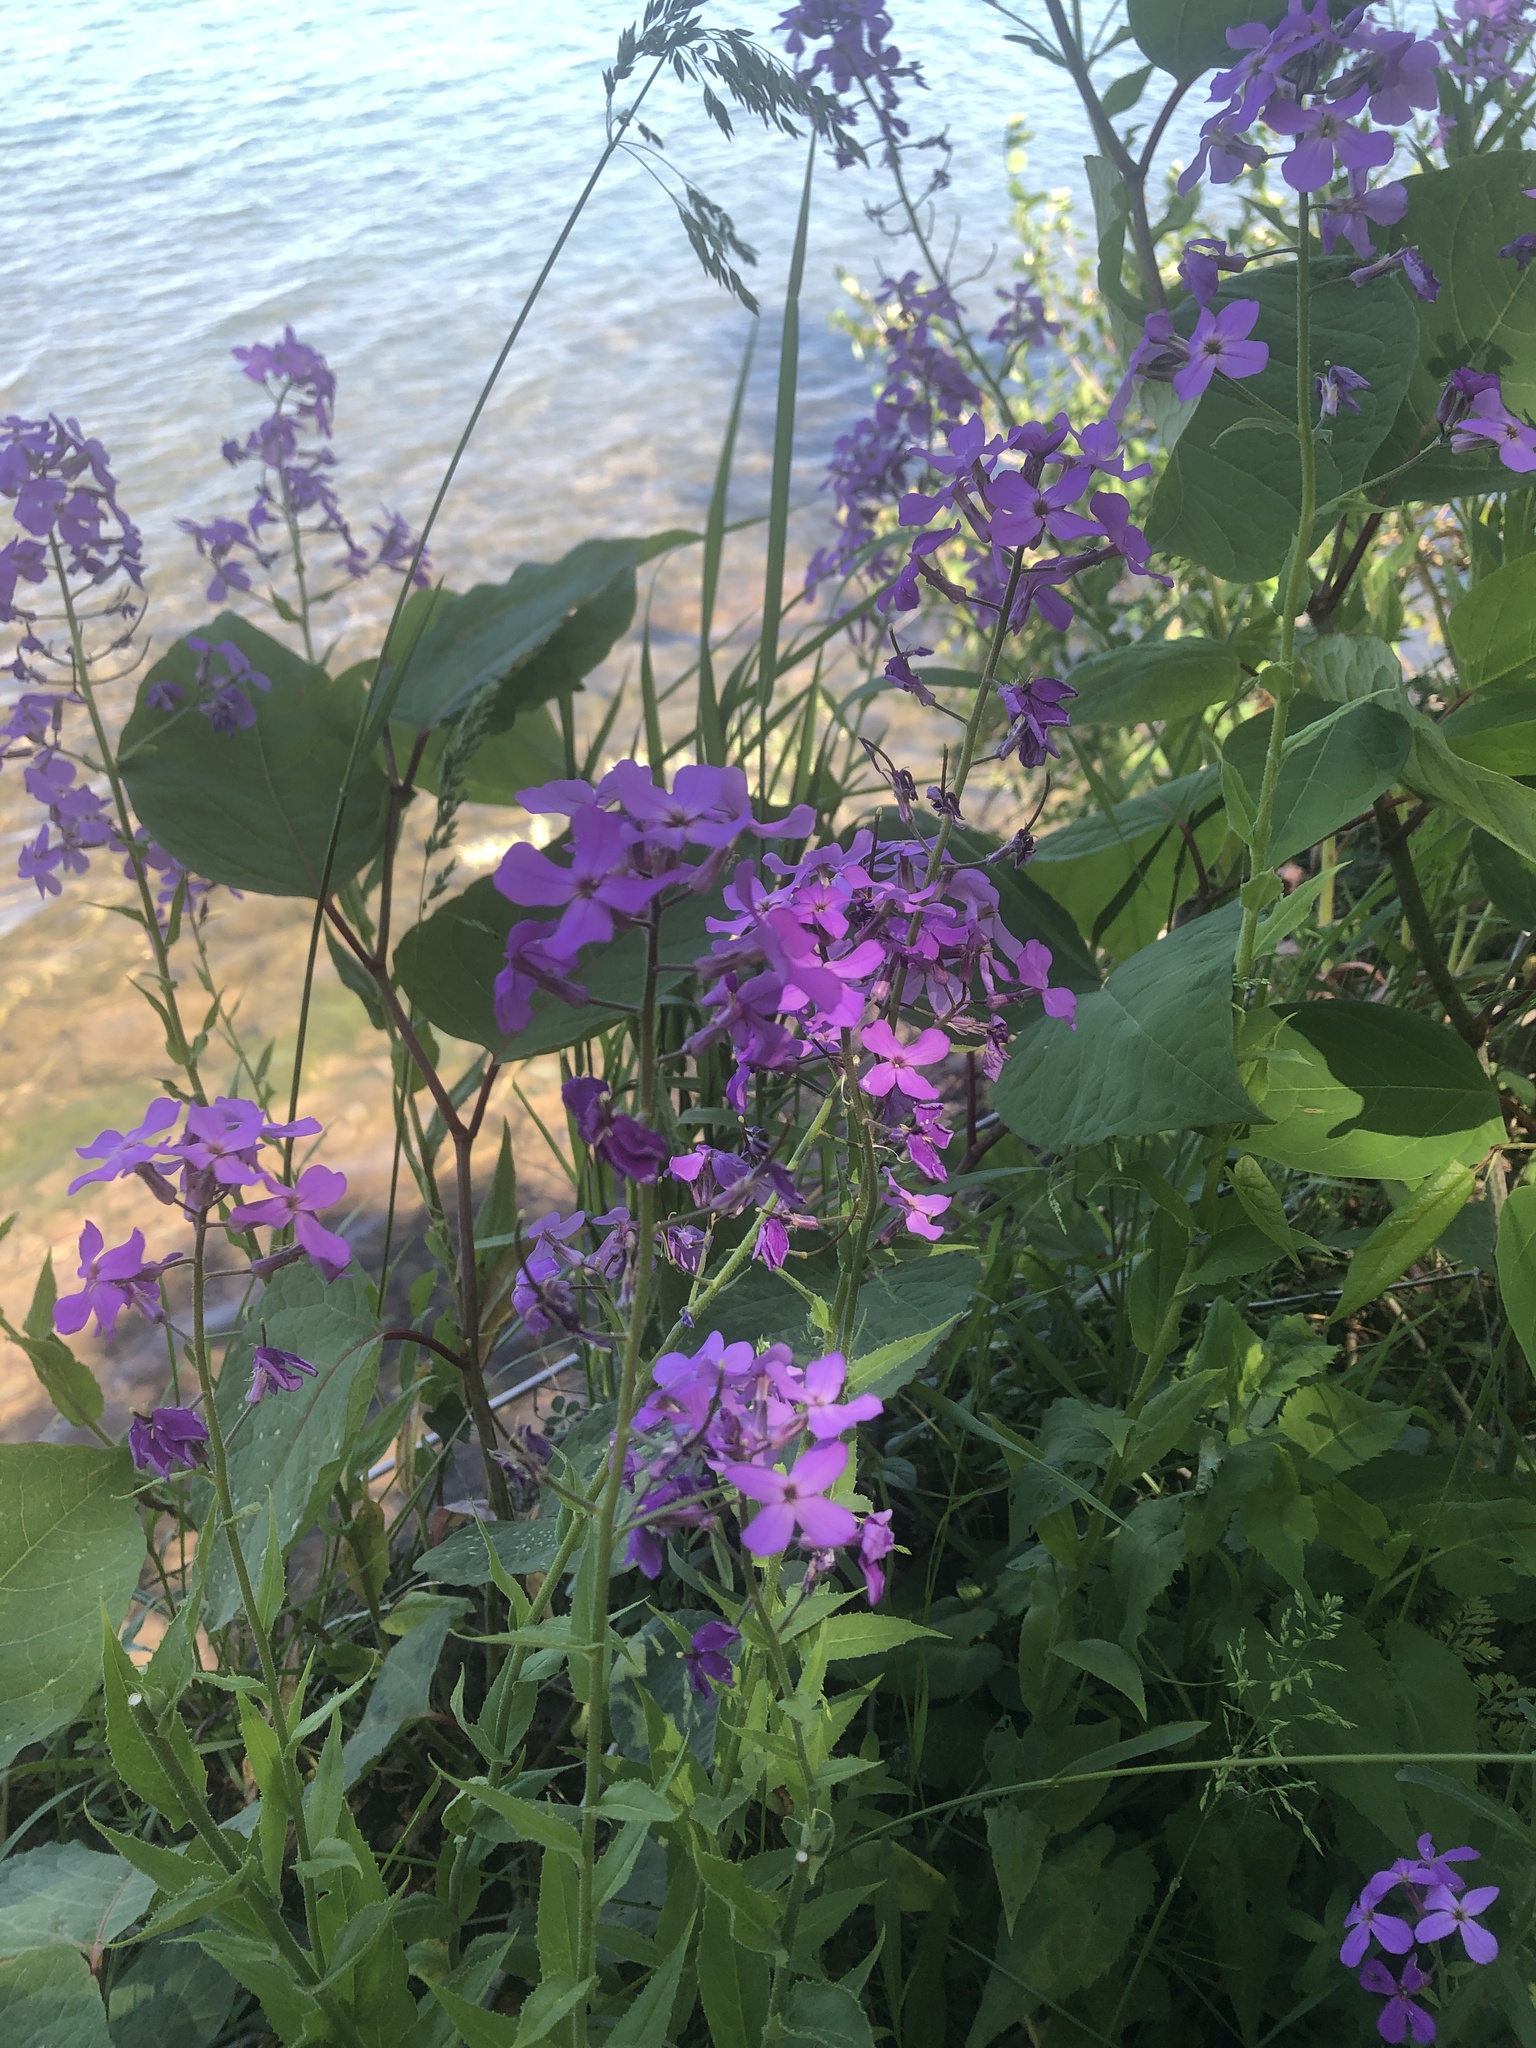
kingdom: Plantae
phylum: Tracheophyta
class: Magnoliopsida
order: Brassicales
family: Brassicaceae
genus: Hesperis
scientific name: Hesperis matronalis
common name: Dame's-violet
